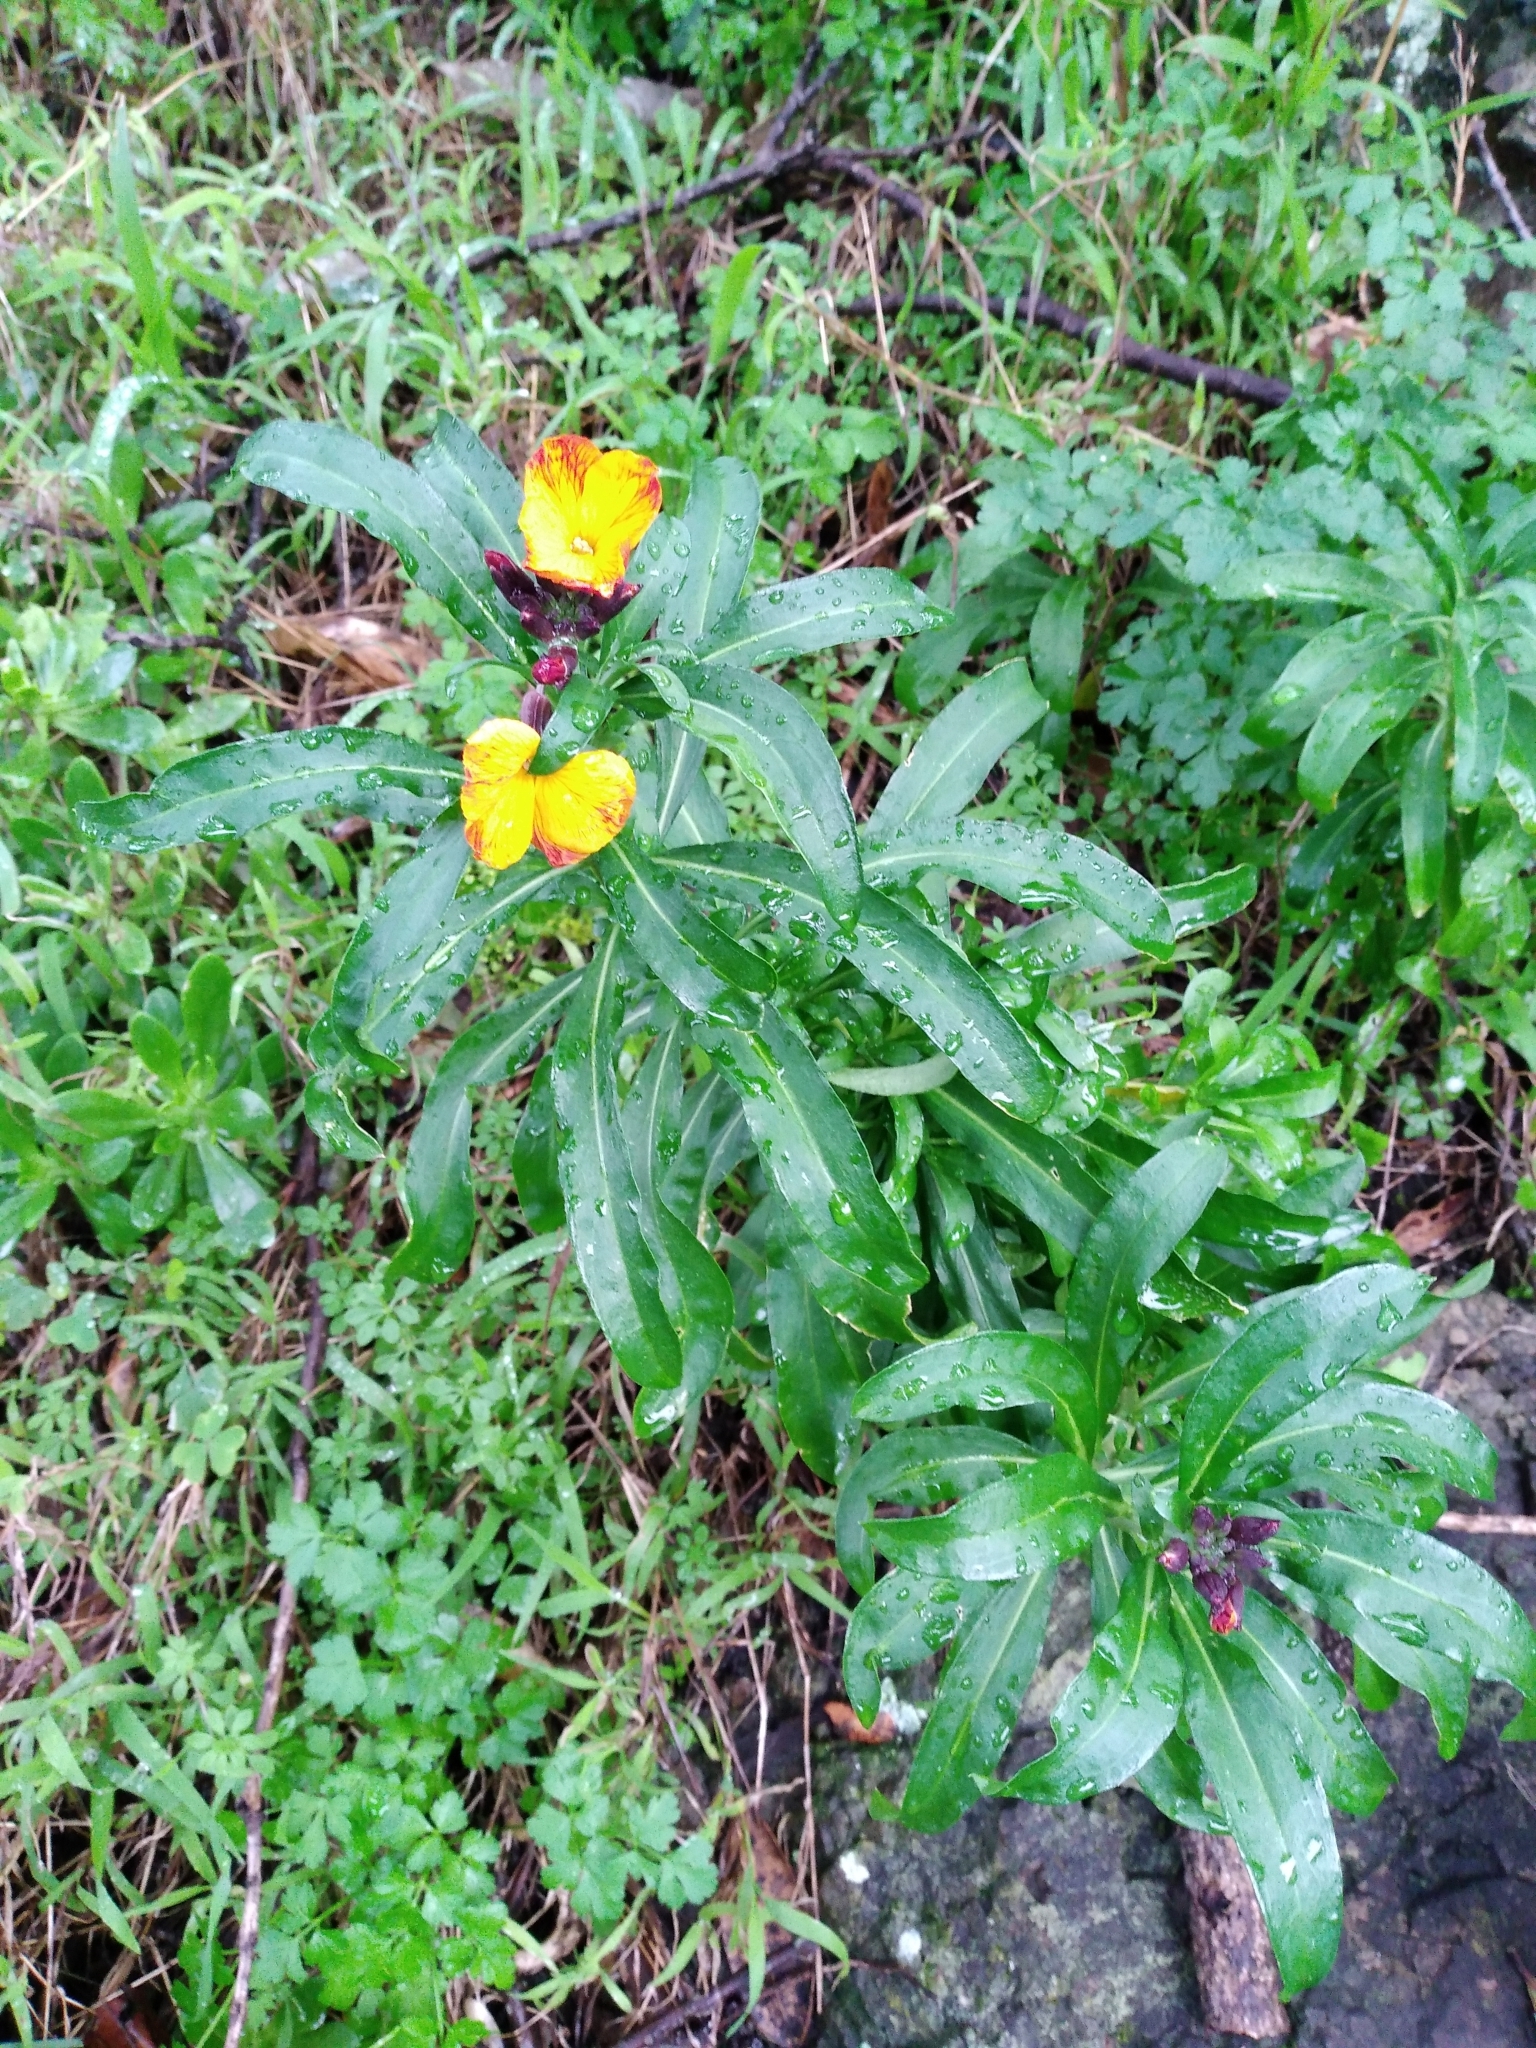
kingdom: Plantae
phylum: Tracheophyta
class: Magnoliopsida
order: Brassicales
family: Brassicaceae
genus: Erysimum
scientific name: Erysimum cheiri
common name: Wallflower
